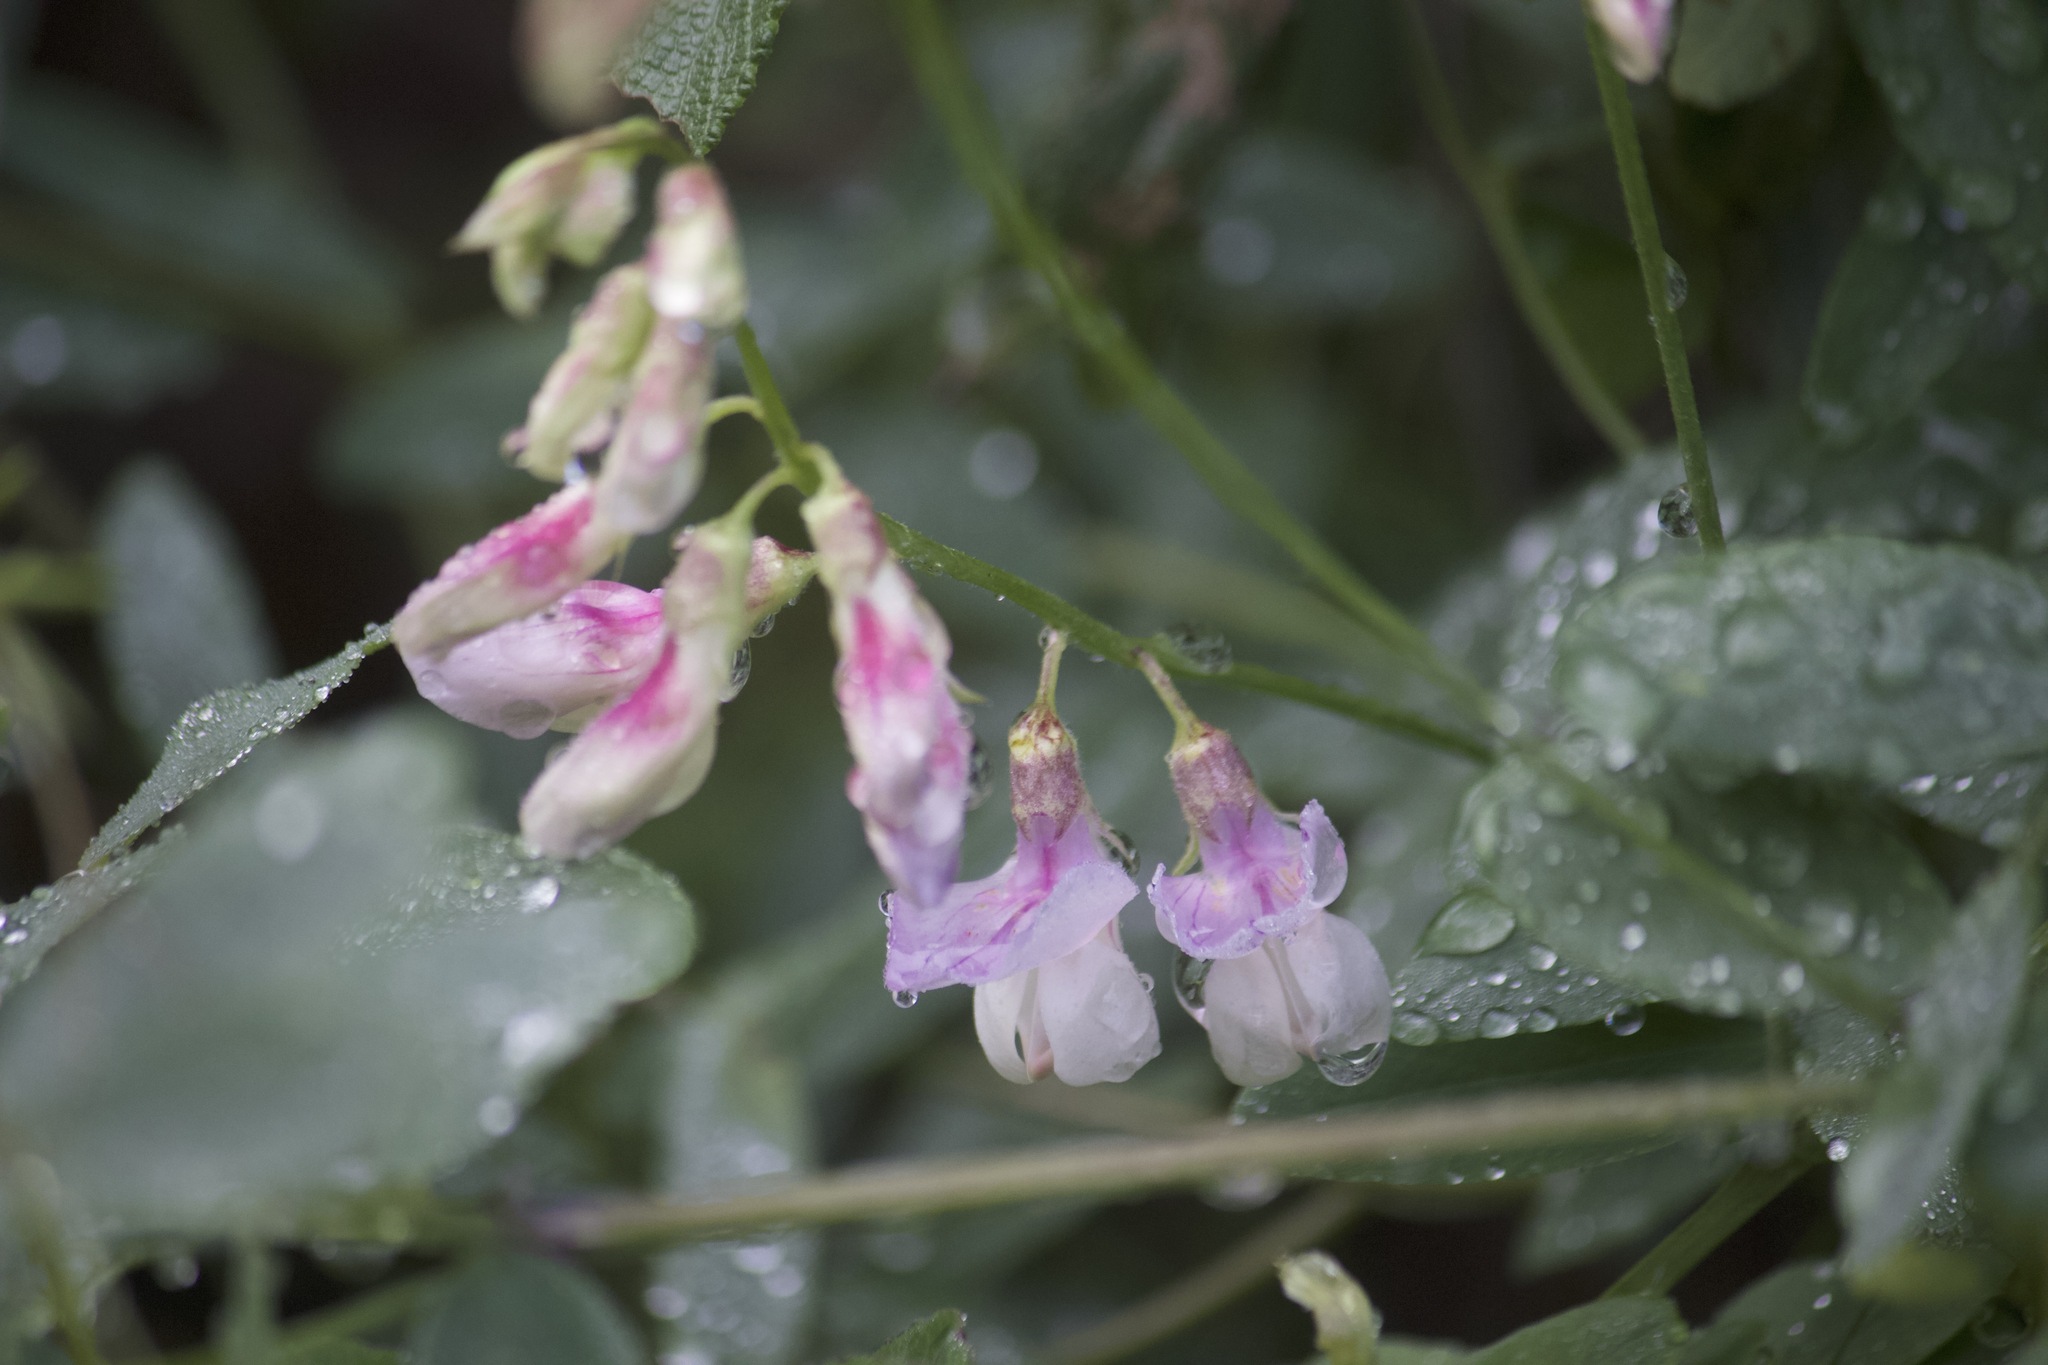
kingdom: Plantae
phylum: Tracheophyta
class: Magnoliopsida
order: Fabales
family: Fabaceae
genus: Lathyrus
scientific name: Lathyrus vestitus
